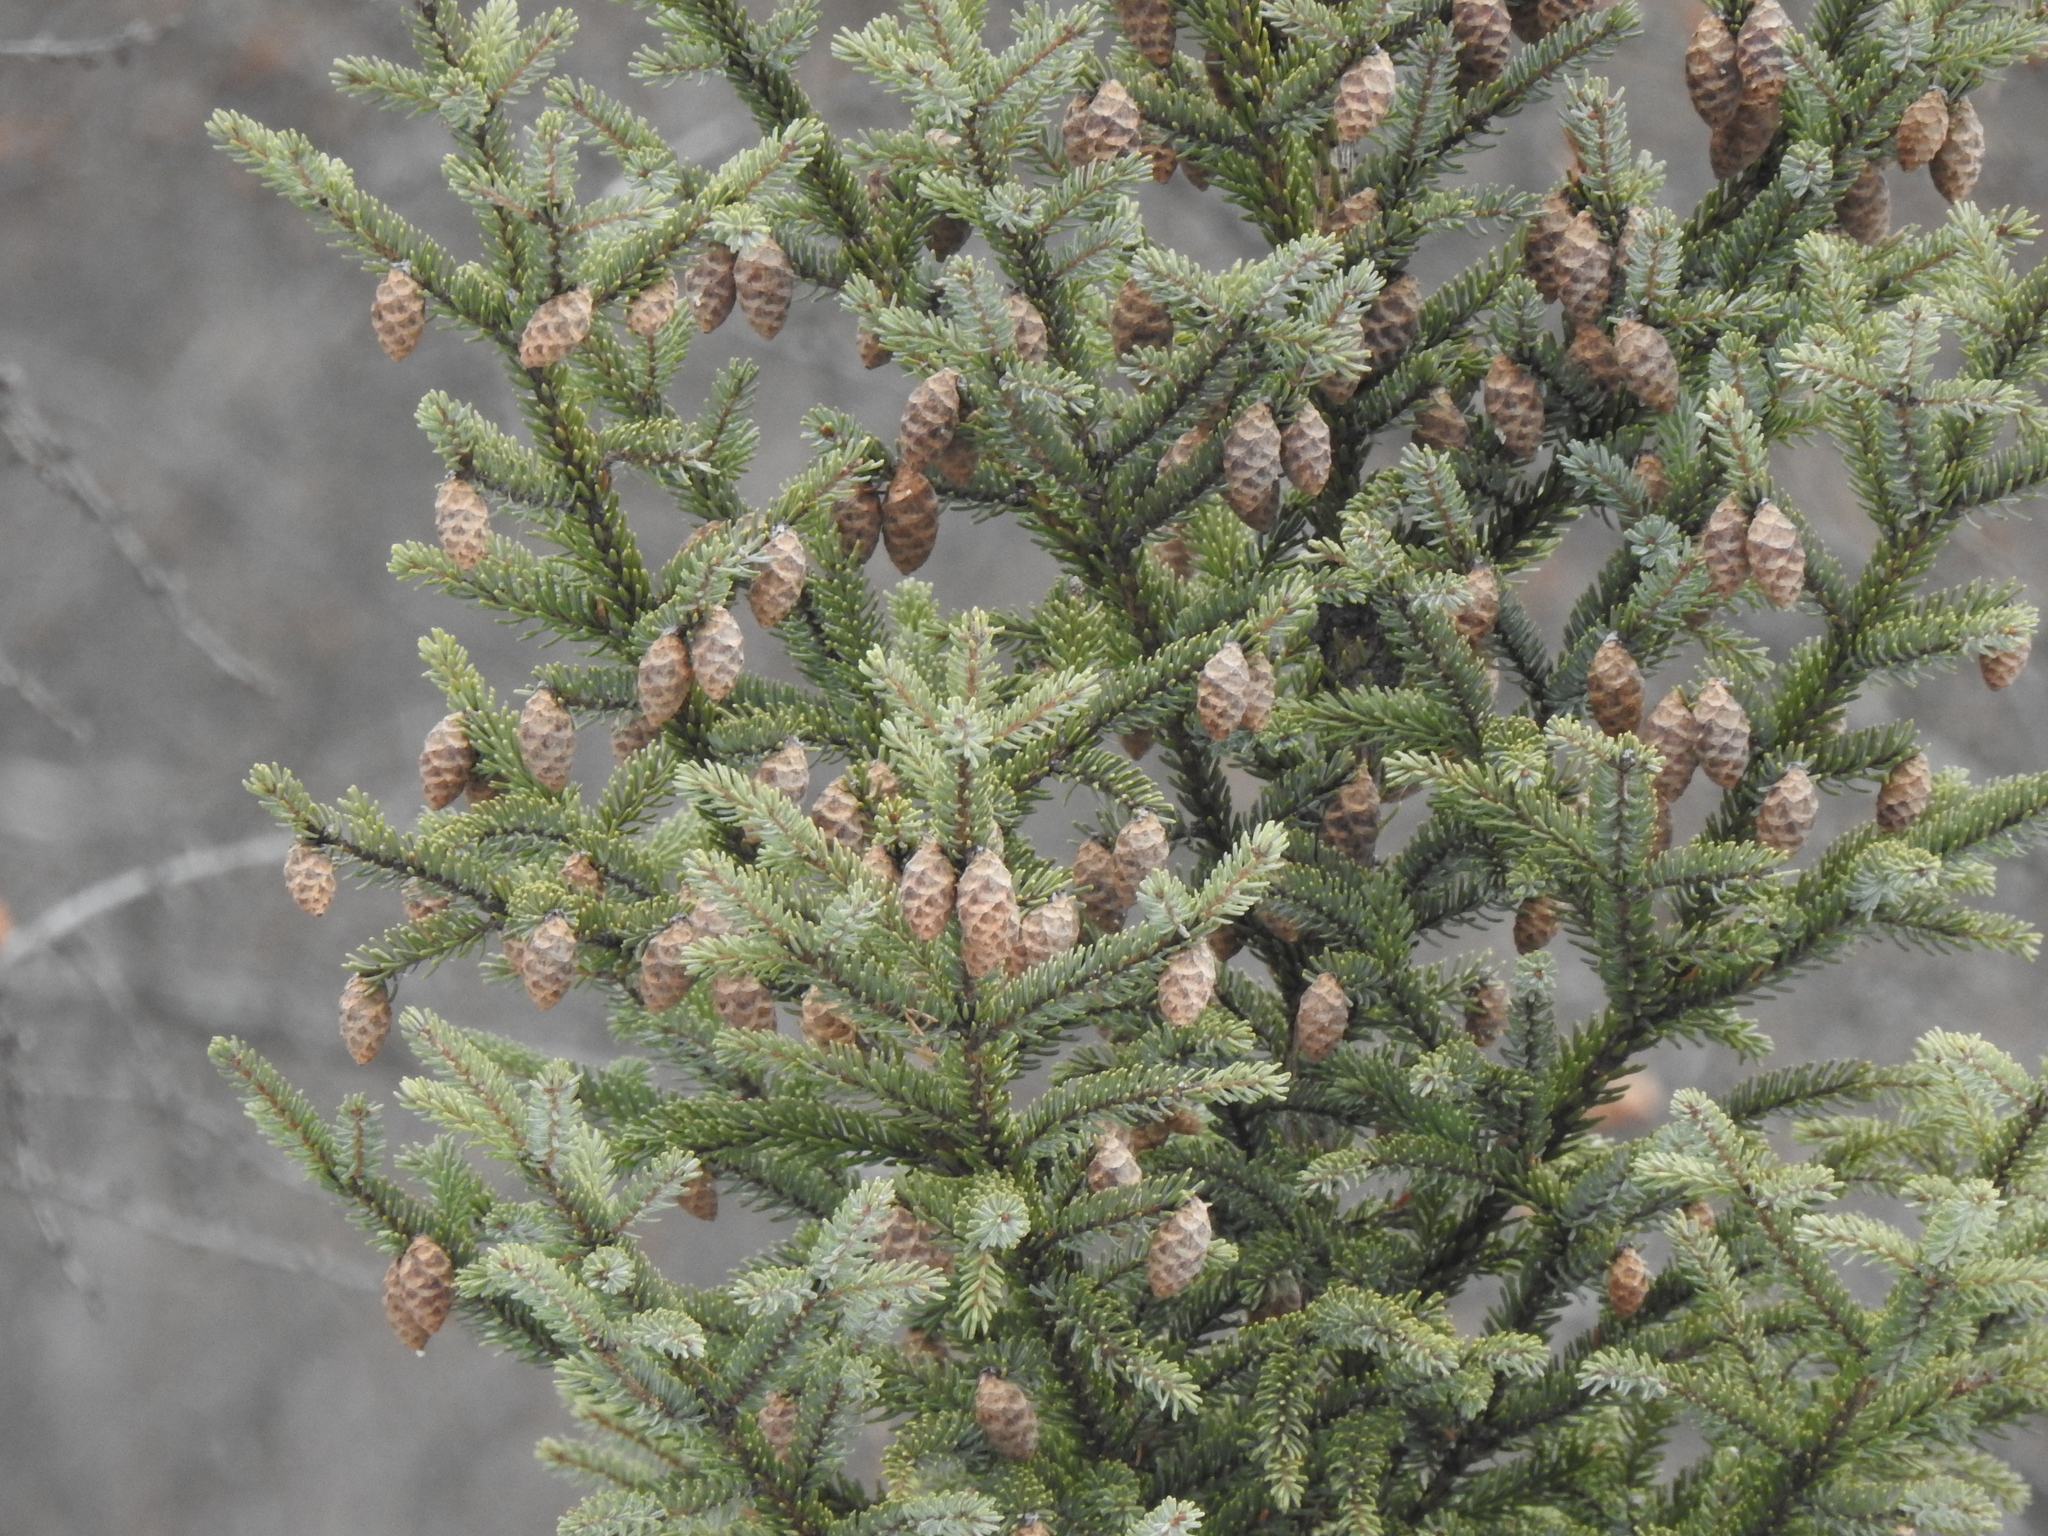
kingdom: Plantae
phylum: Tracheophyta
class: Pinopsida
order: Pinales
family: Pinaceae
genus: Picea
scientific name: Picea mariana
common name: Black spruce
